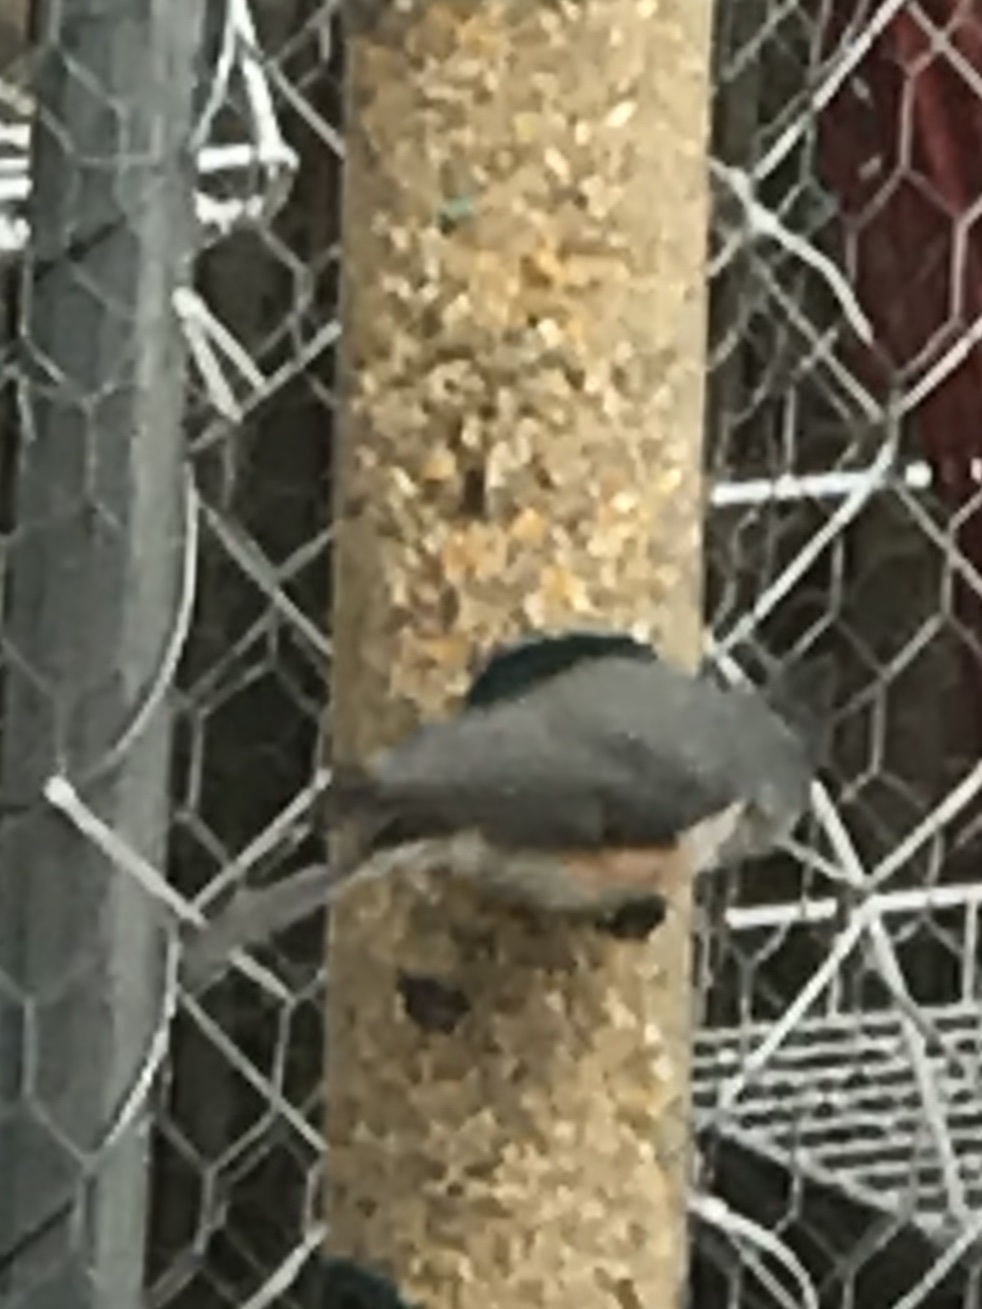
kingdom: Animalia
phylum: Chordata
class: Aves
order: Passeriformes
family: Paridae
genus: Baeolophus
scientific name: Baeolophus bicolor
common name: Tufted titmouse
